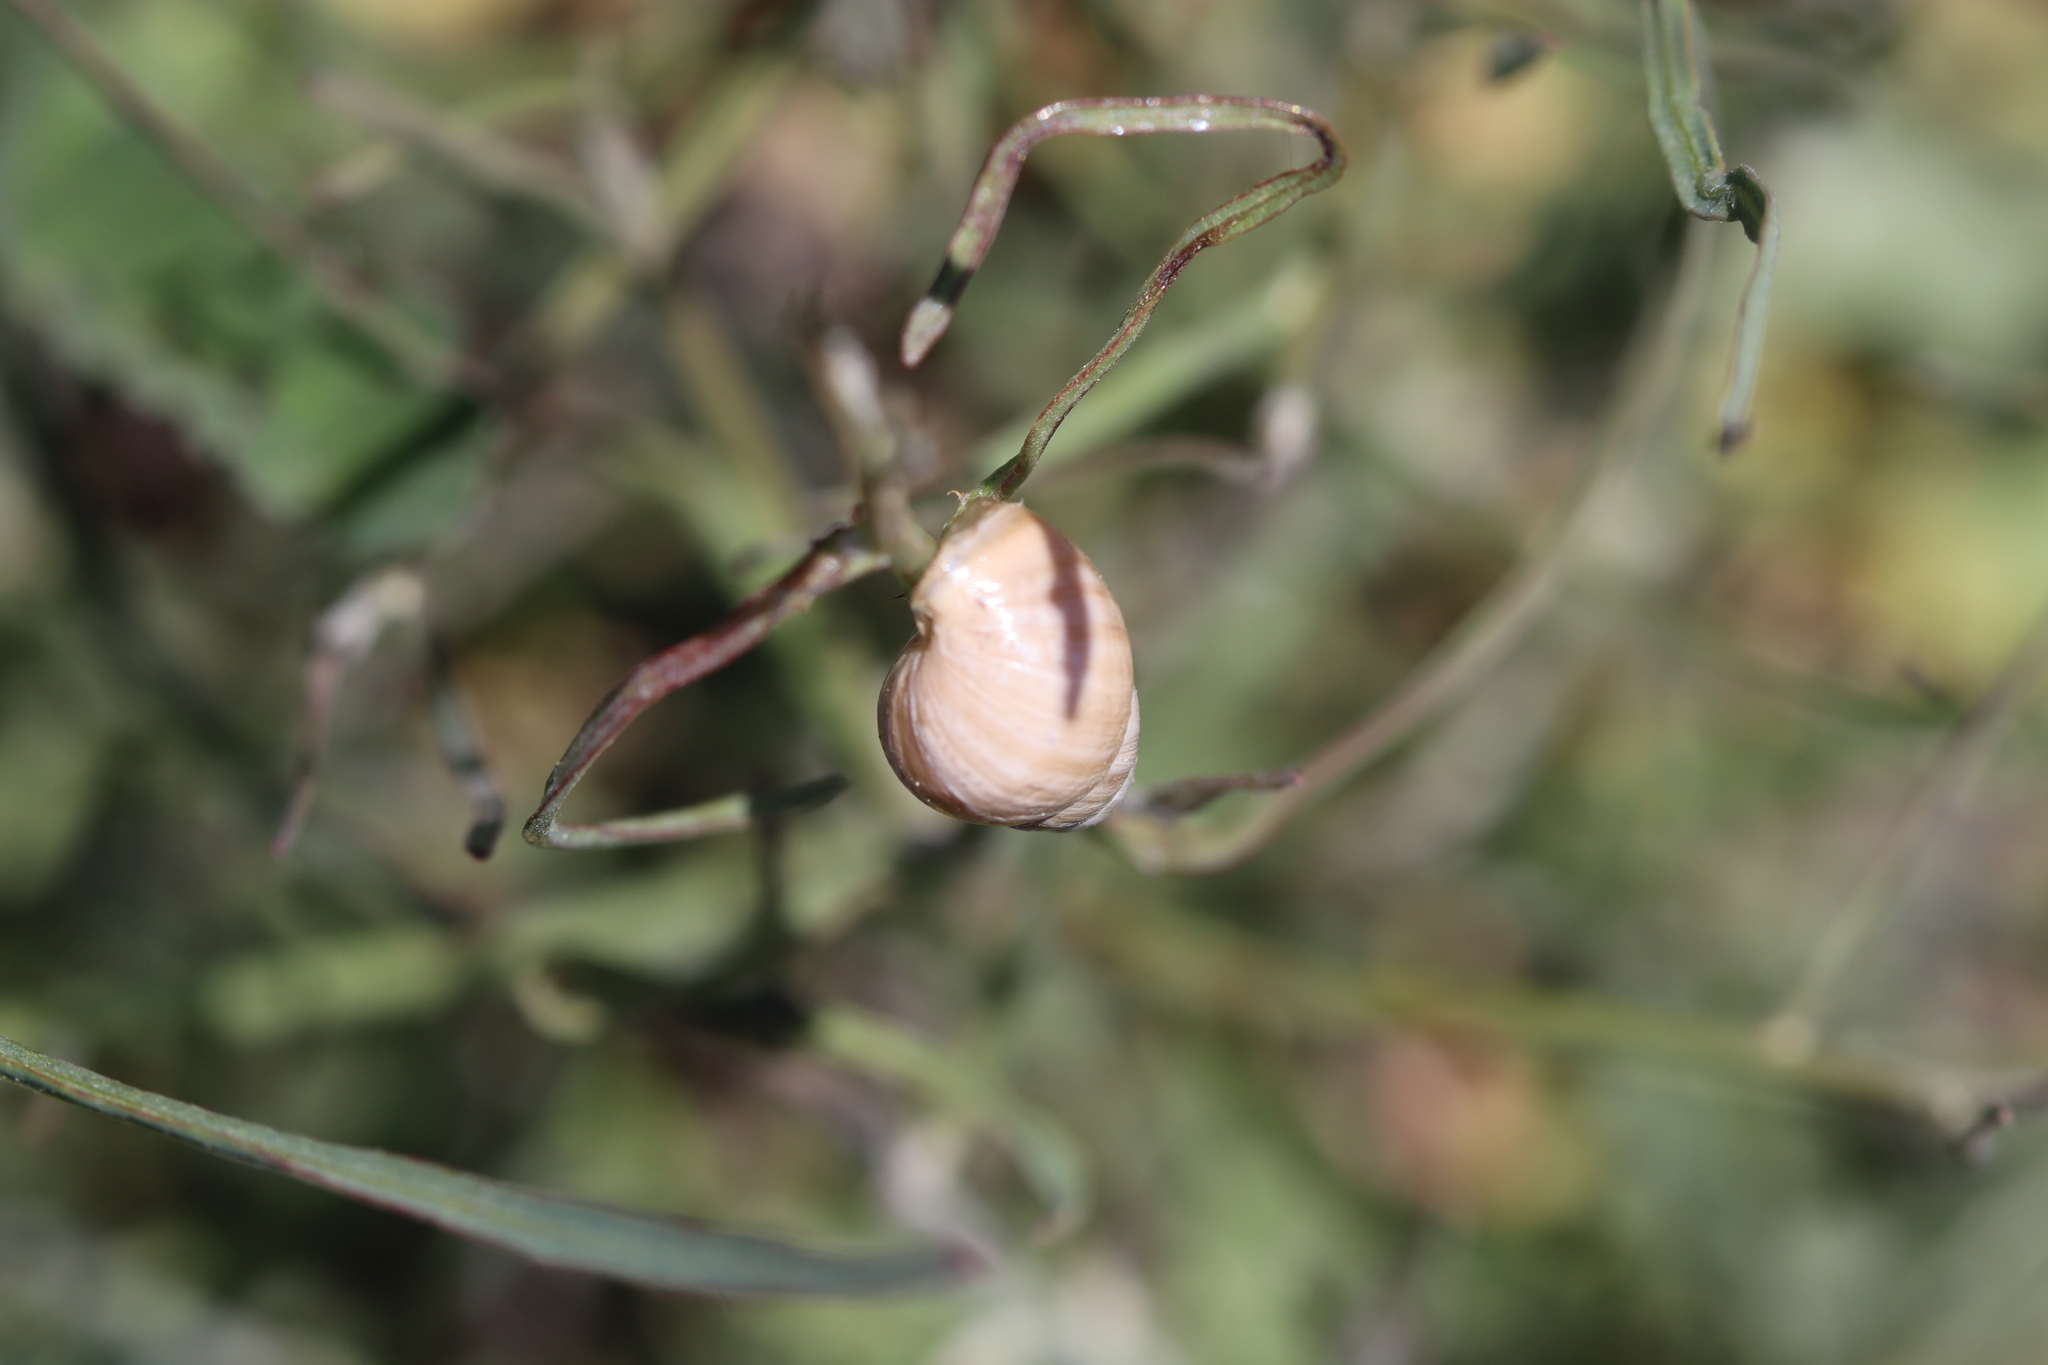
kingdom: Animalia
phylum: Mollusca
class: Gastropoda
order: Stylommatophora
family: Enidae
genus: Zebrina
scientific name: Zebrina detrita
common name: Large bulin
